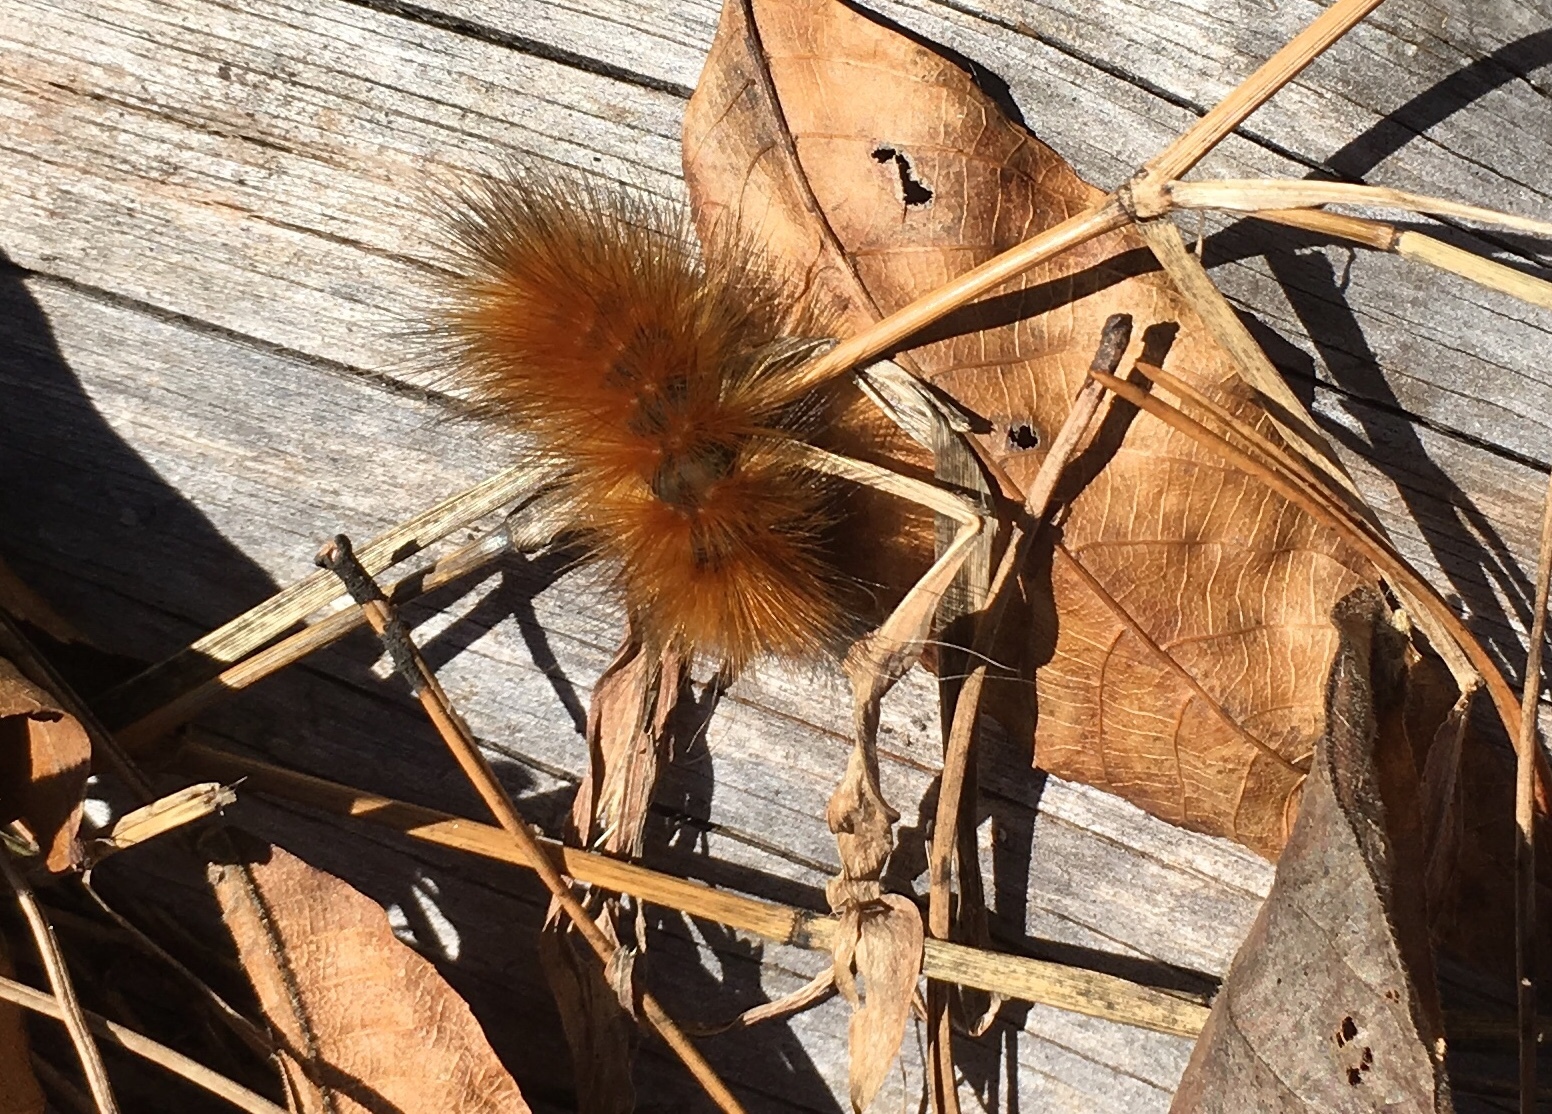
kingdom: Animalia
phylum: Arthropoda
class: Insecta
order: Lepidoptera
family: Erebidae
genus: Spilosoma
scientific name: Spilosoma virginica
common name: Virginia tiger moth
